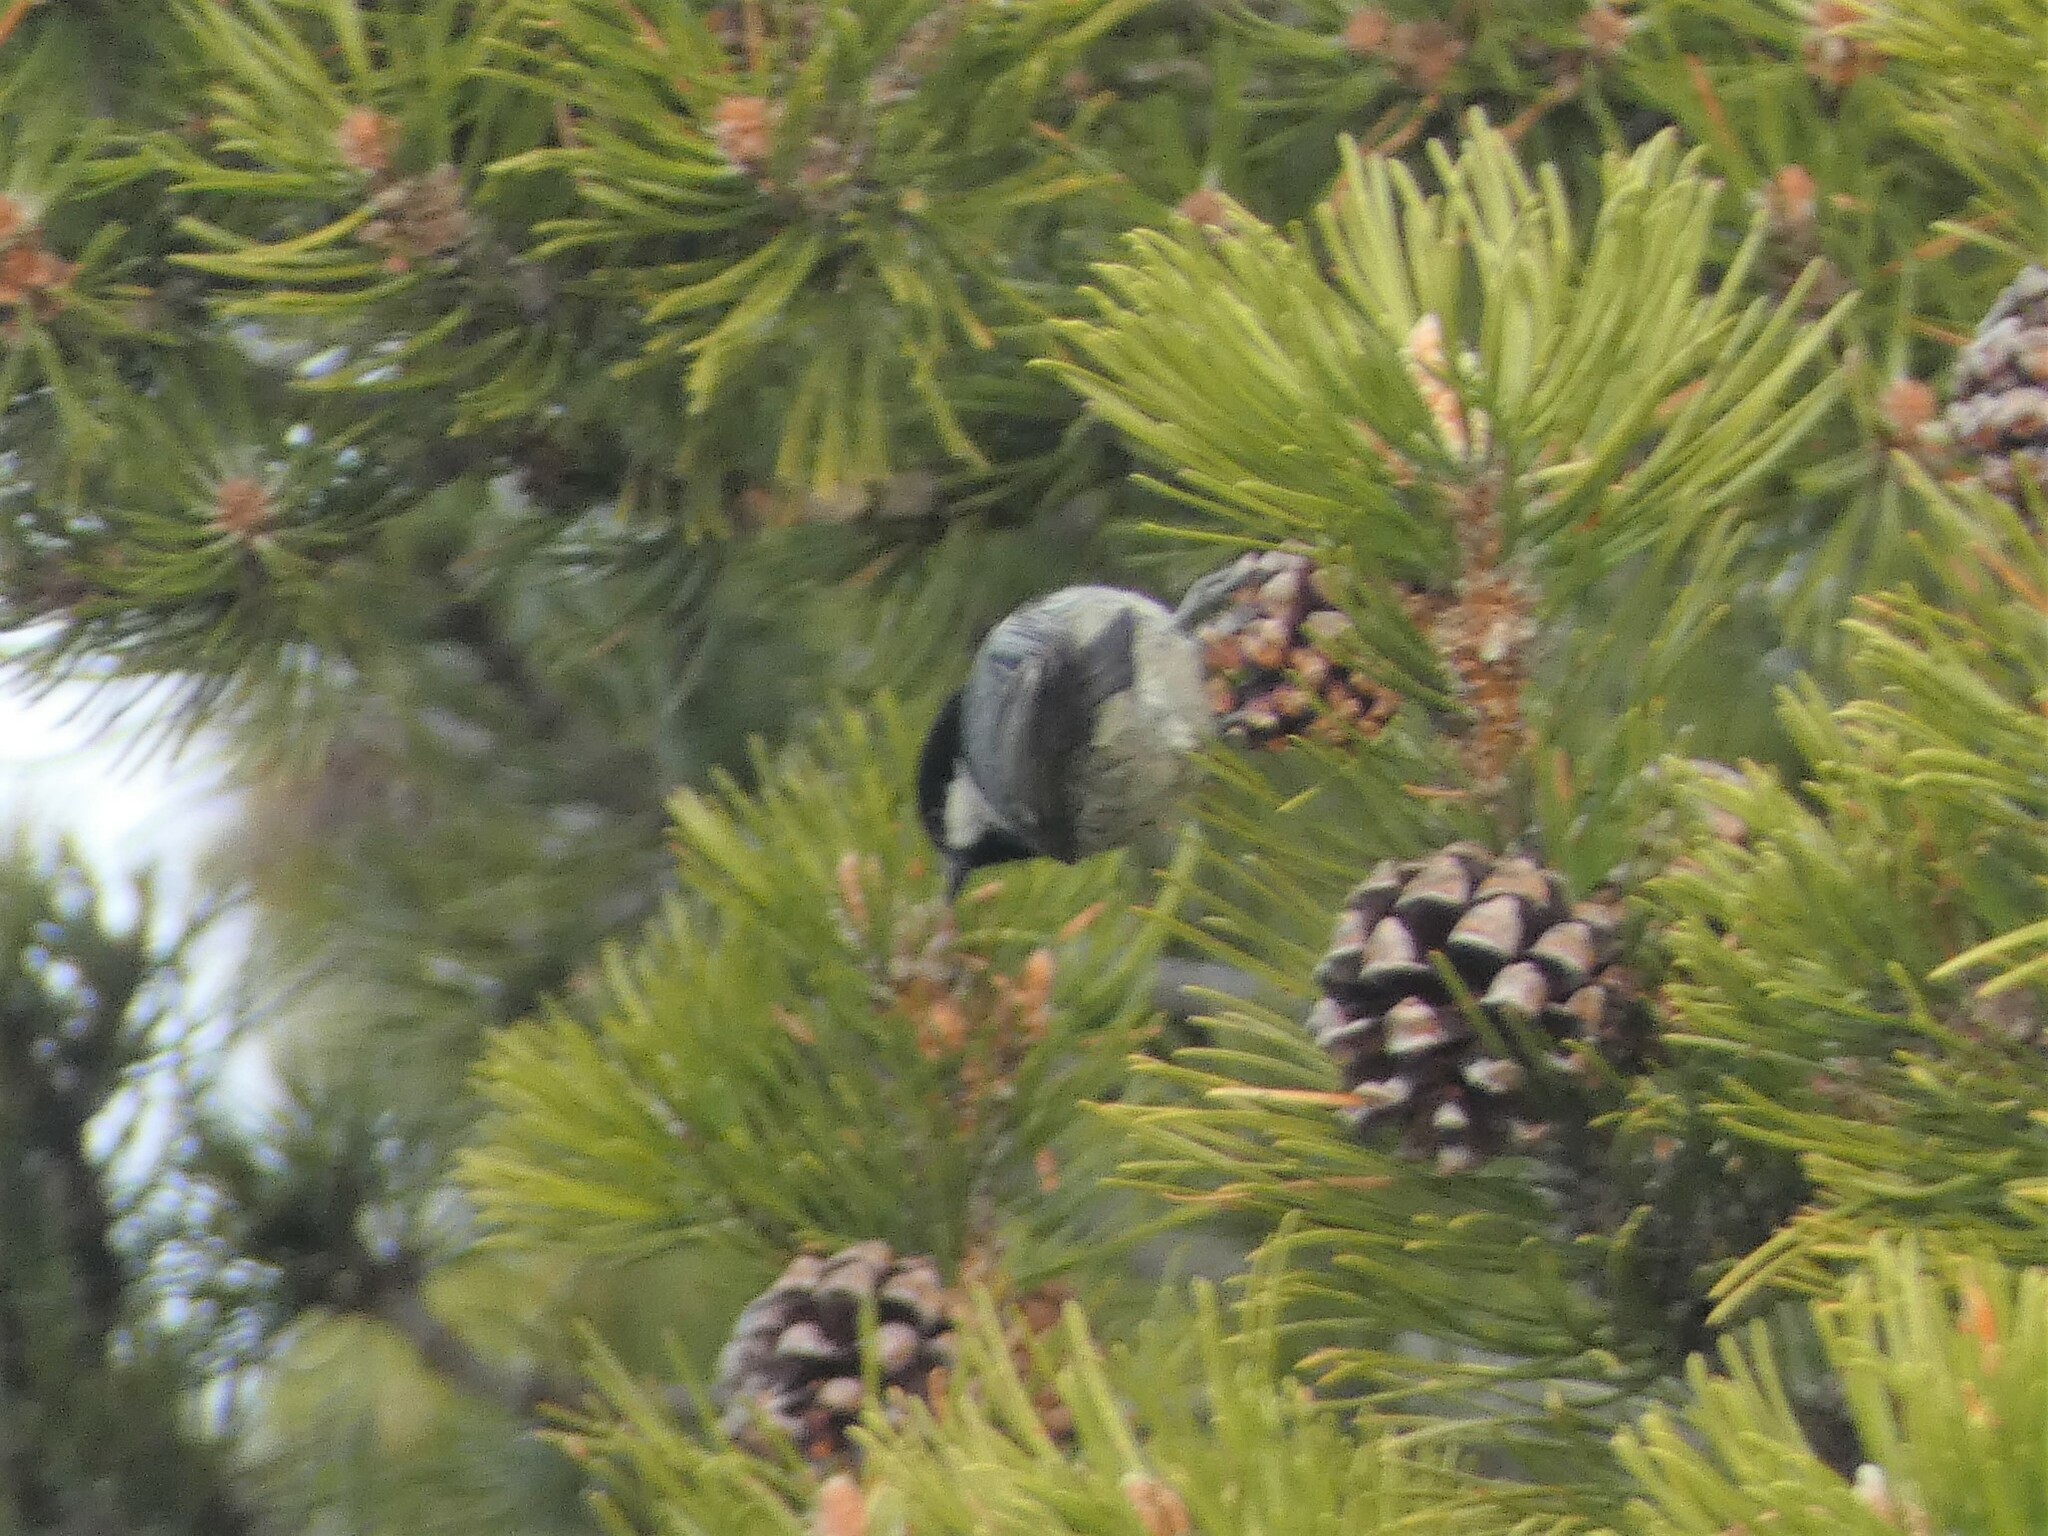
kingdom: Animalia
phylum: Chordata
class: Aves
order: Passeriformes
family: Paridae
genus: Periparus
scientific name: Periparus ater
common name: Coal tit
